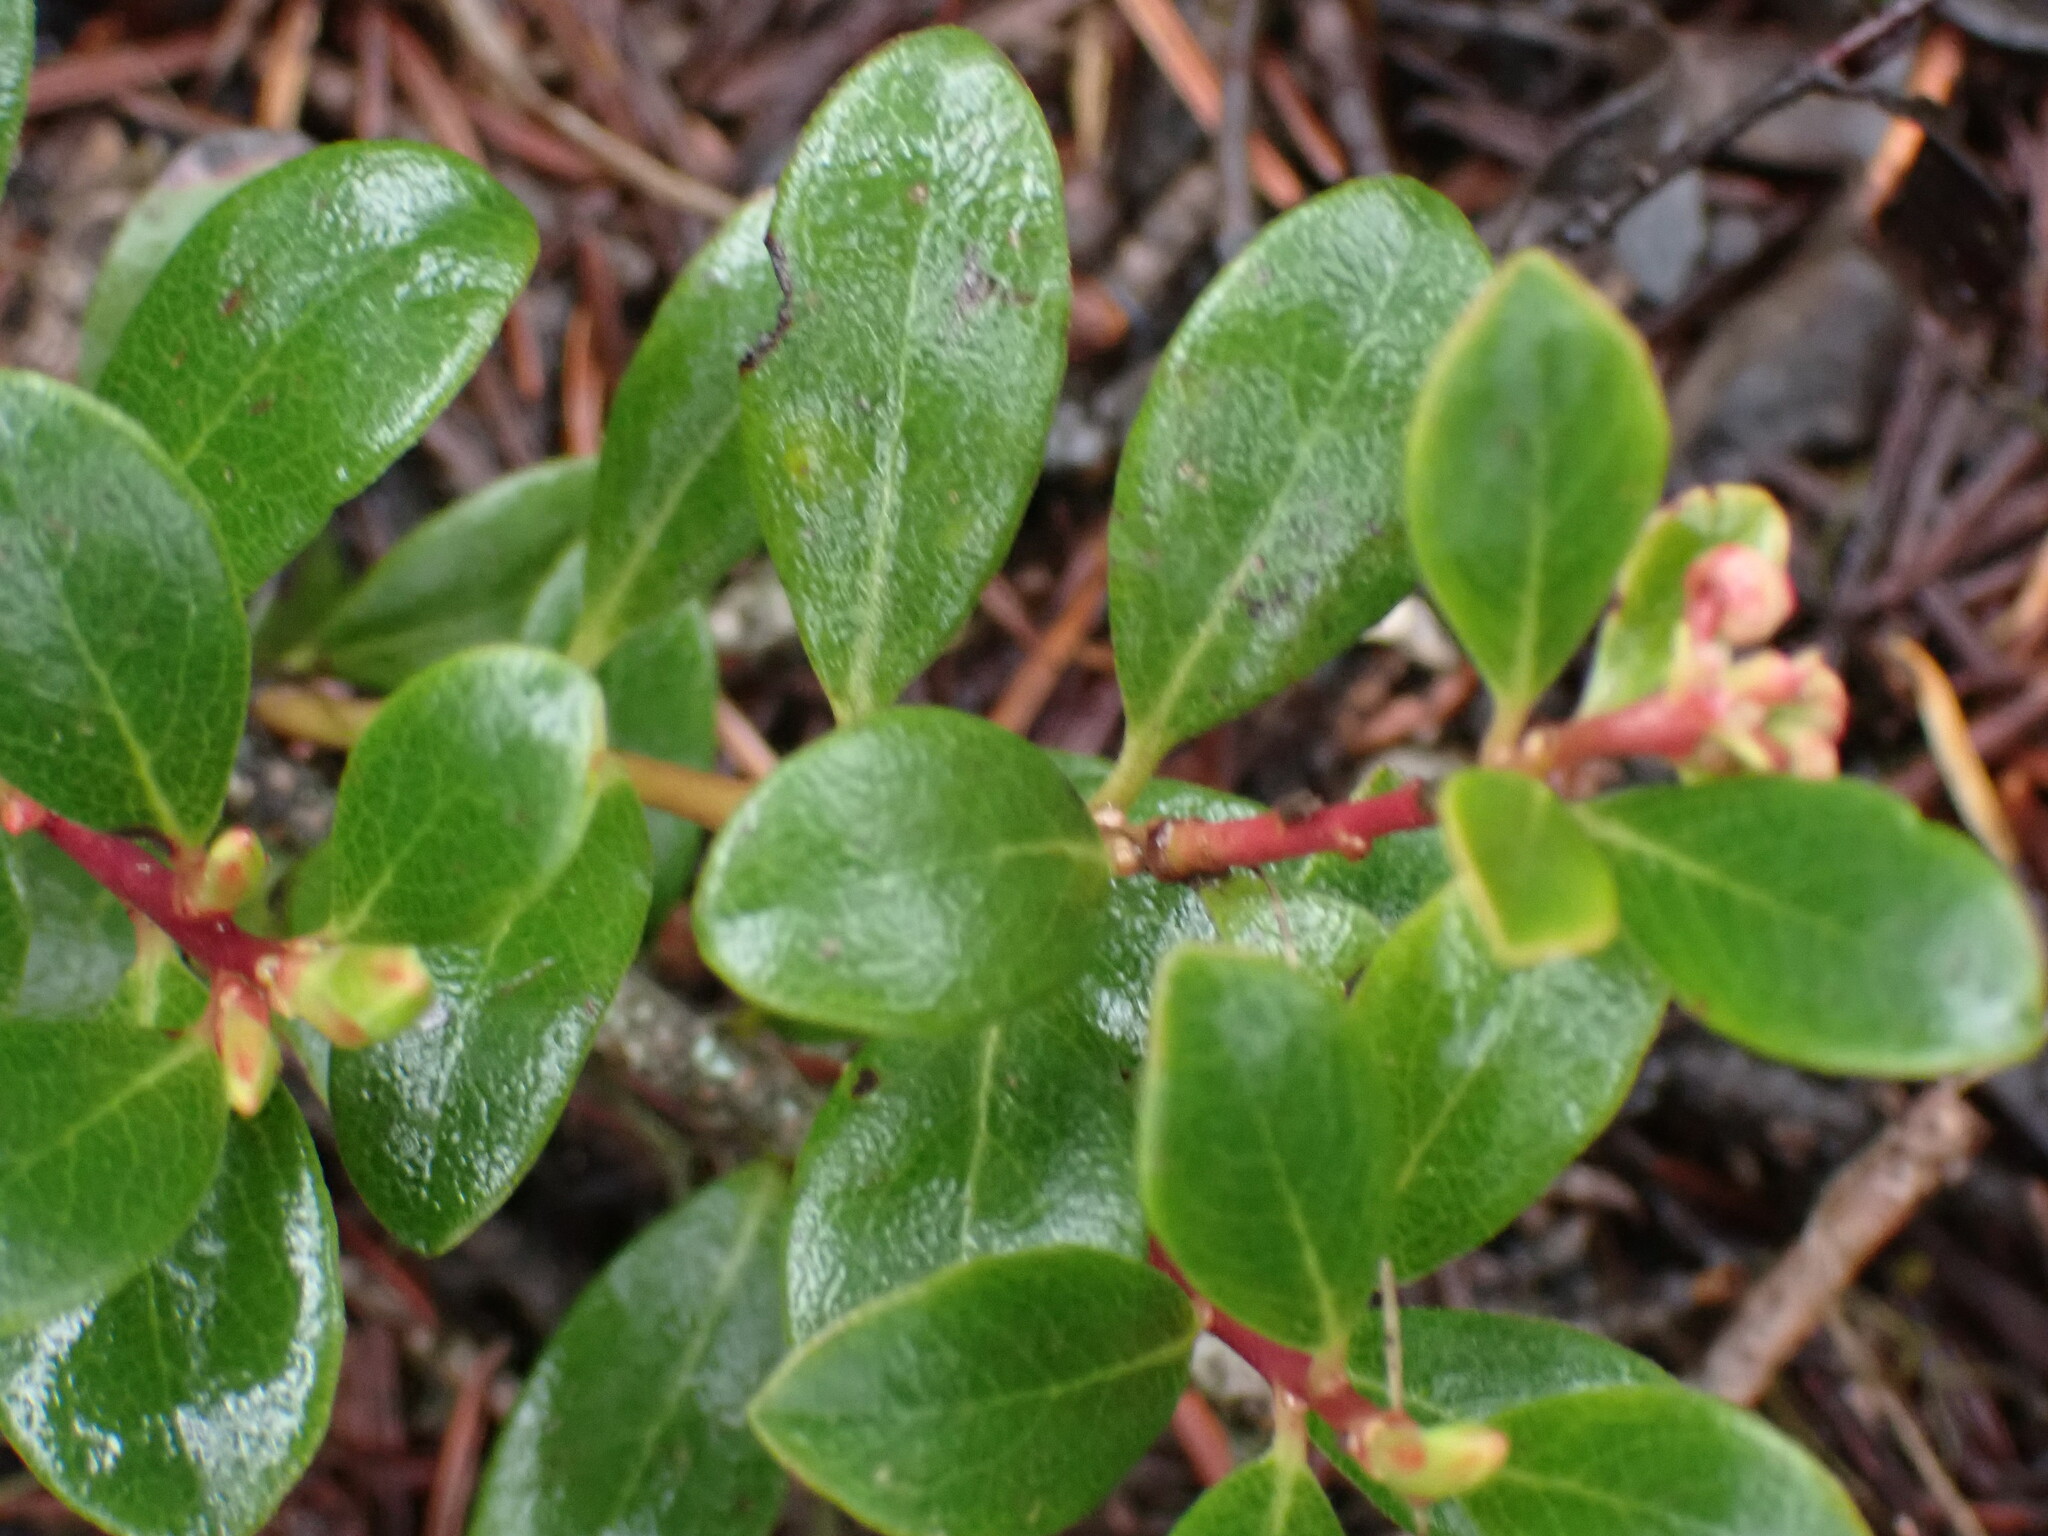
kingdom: Plantae
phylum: Tracheophyta
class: Magnoliopsida
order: Ericales
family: Ericaceae
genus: Arctostaphylos
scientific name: Arctostaphylos uva-ursi
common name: Bearberry
